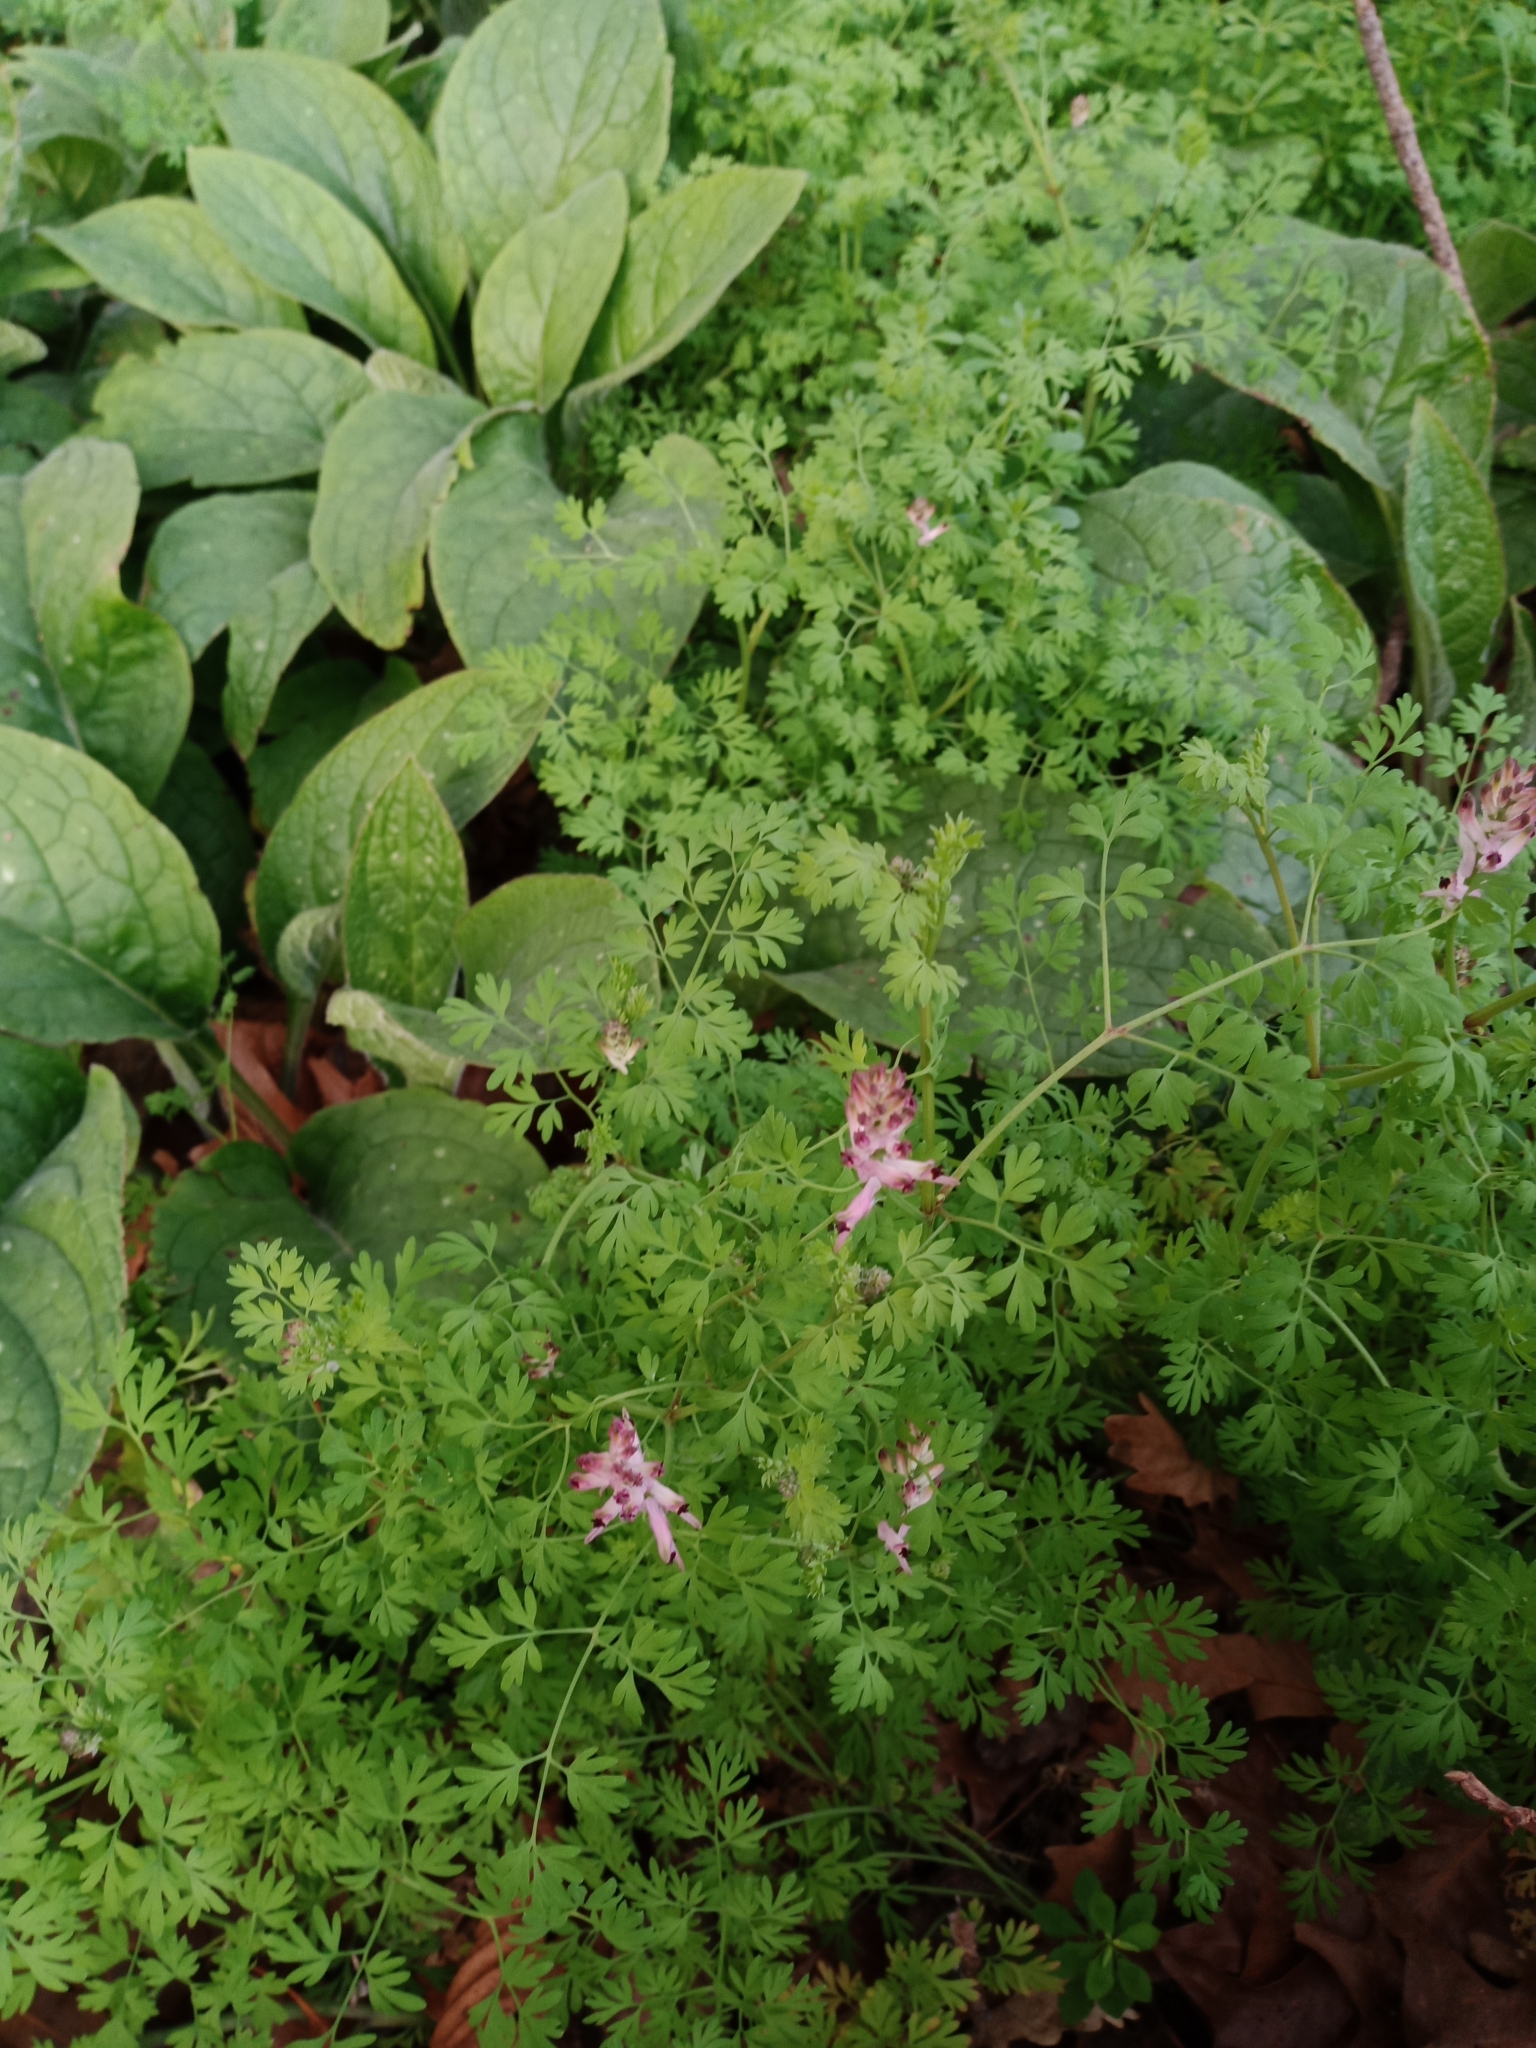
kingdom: Plantae
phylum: Tracheophyta
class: Magnoliopsida
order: Ranunculales
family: Papaveraceae
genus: Fumaria
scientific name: Fumaria muralis
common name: Common ramping-fumitory
